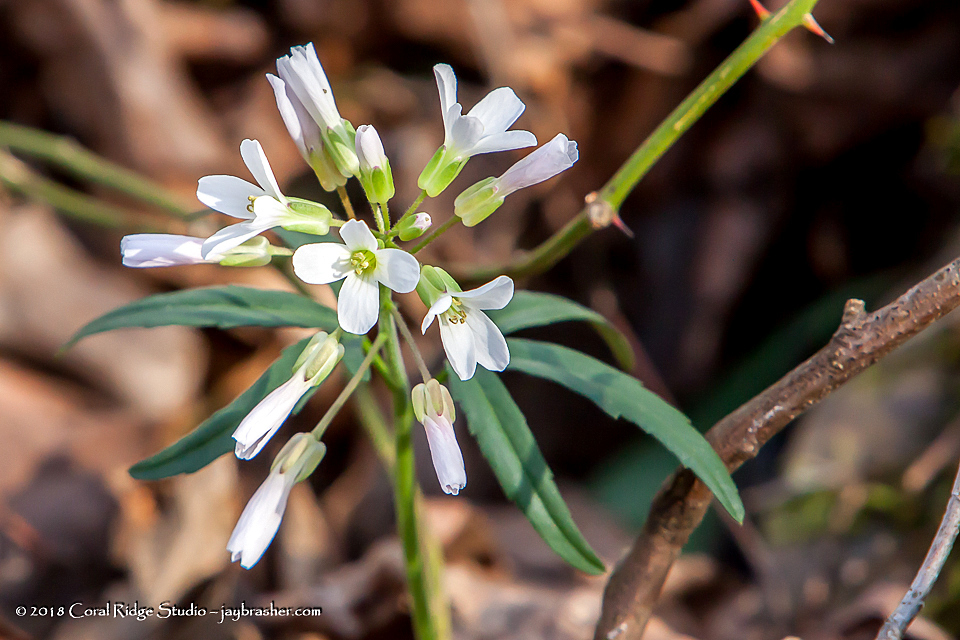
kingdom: Plantae
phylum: Tracheophyta
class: Magnoliopsida
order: Brassicales
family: Brassicaceae
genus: Cardamine
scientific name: Cardamine concatenata
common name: Cut-leaf toothcup
